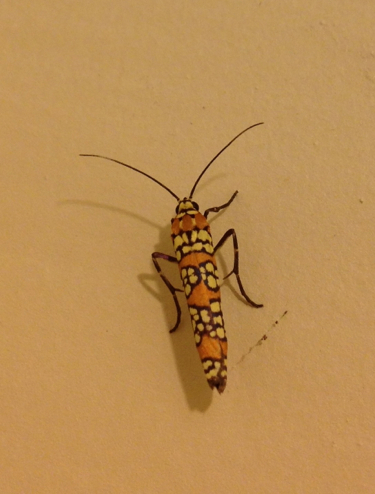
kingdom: Animalia
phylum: Arthropoda
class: Insecta
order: Lepidoptera
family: Attevidae
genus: Atteva
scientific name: Atteva punctella
